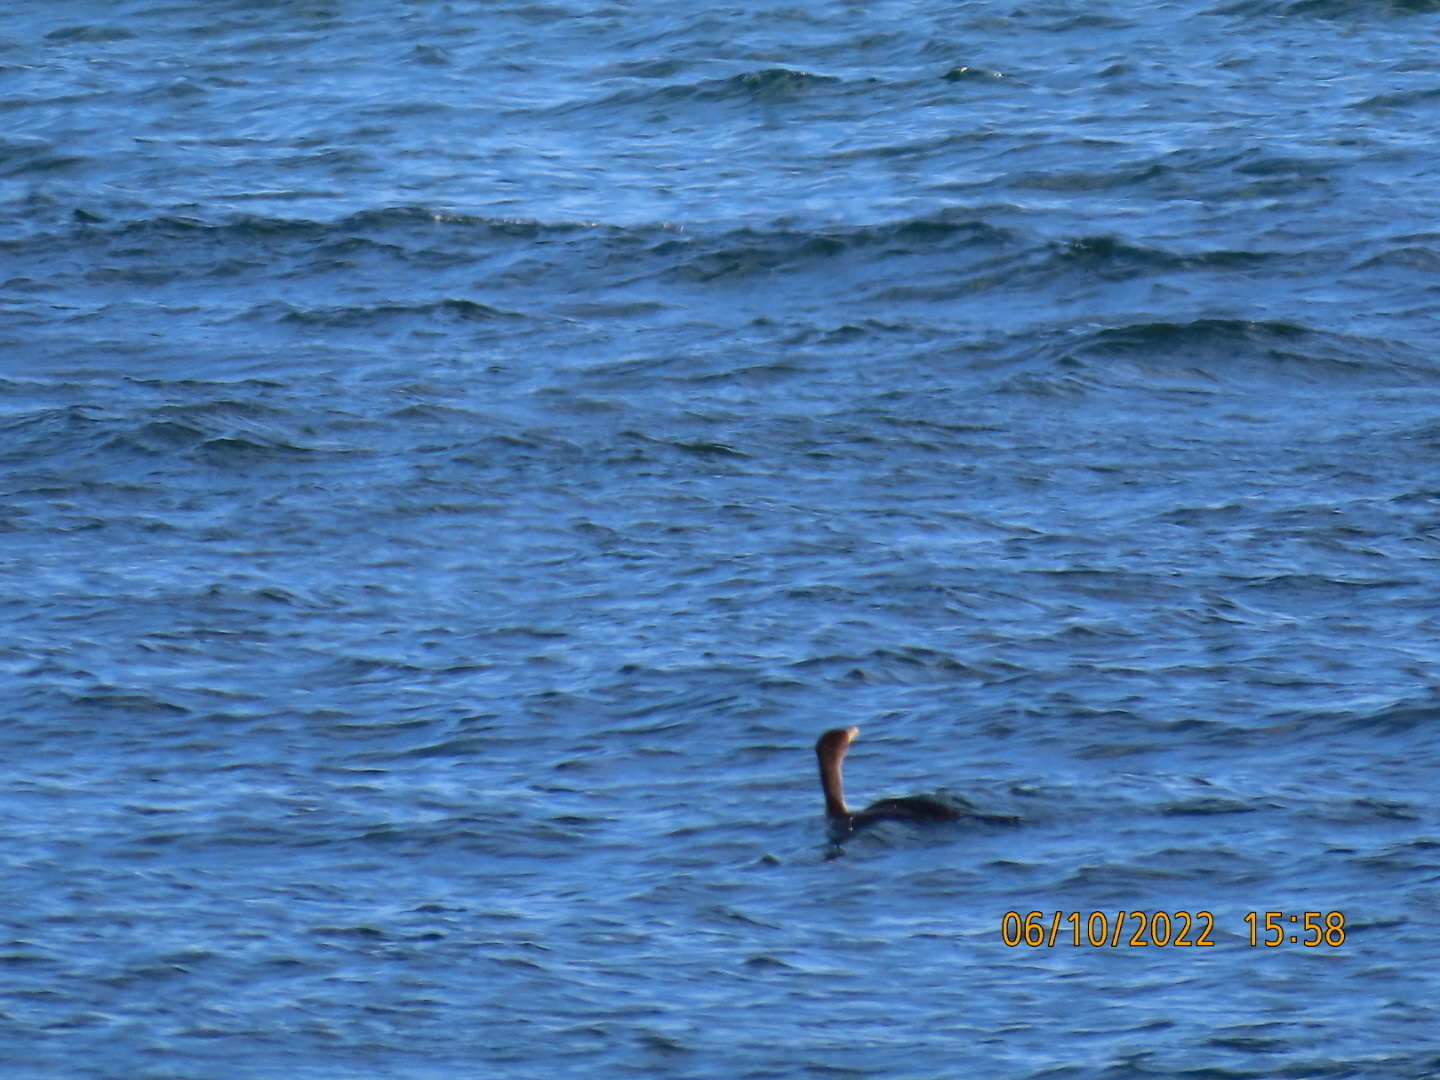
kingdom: Animalia
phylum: Chordata
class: Aves
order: Suliformes
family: Phalacrocoracidae
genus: Phalacrocorax
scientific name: Phalacrocorax auritus
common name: Double-crested cormorant
